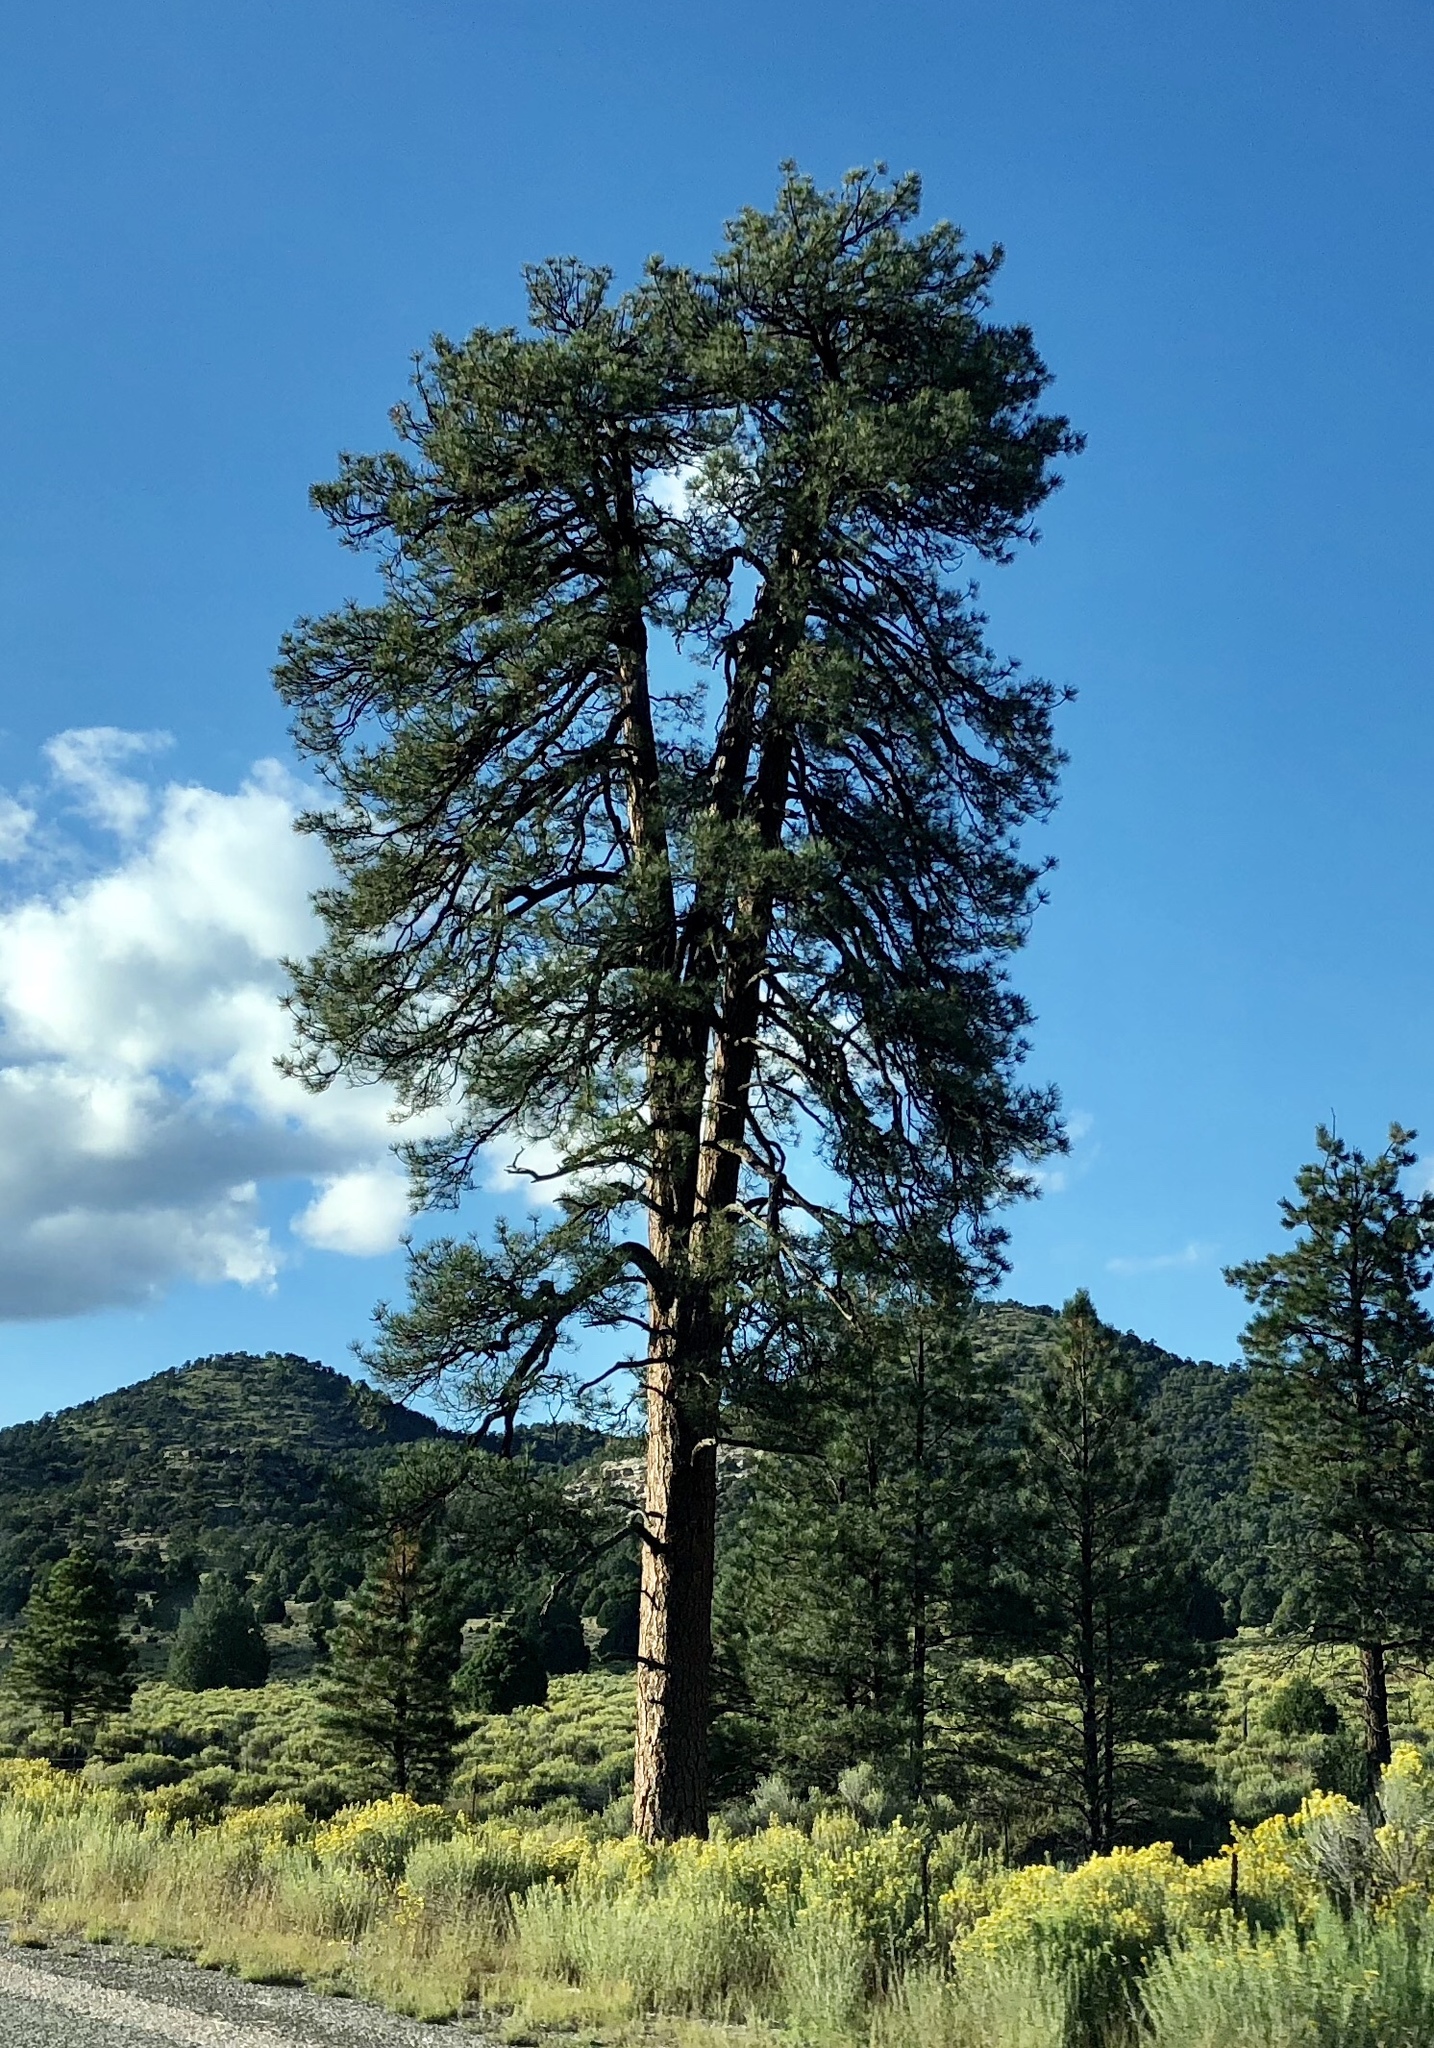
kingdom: Plantae
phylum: Tracheophyta
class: Pinopsida
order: Pinales
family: Pinaceae
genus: Pinus
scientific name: Pinus ponderosa
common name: Western yellow-pine
